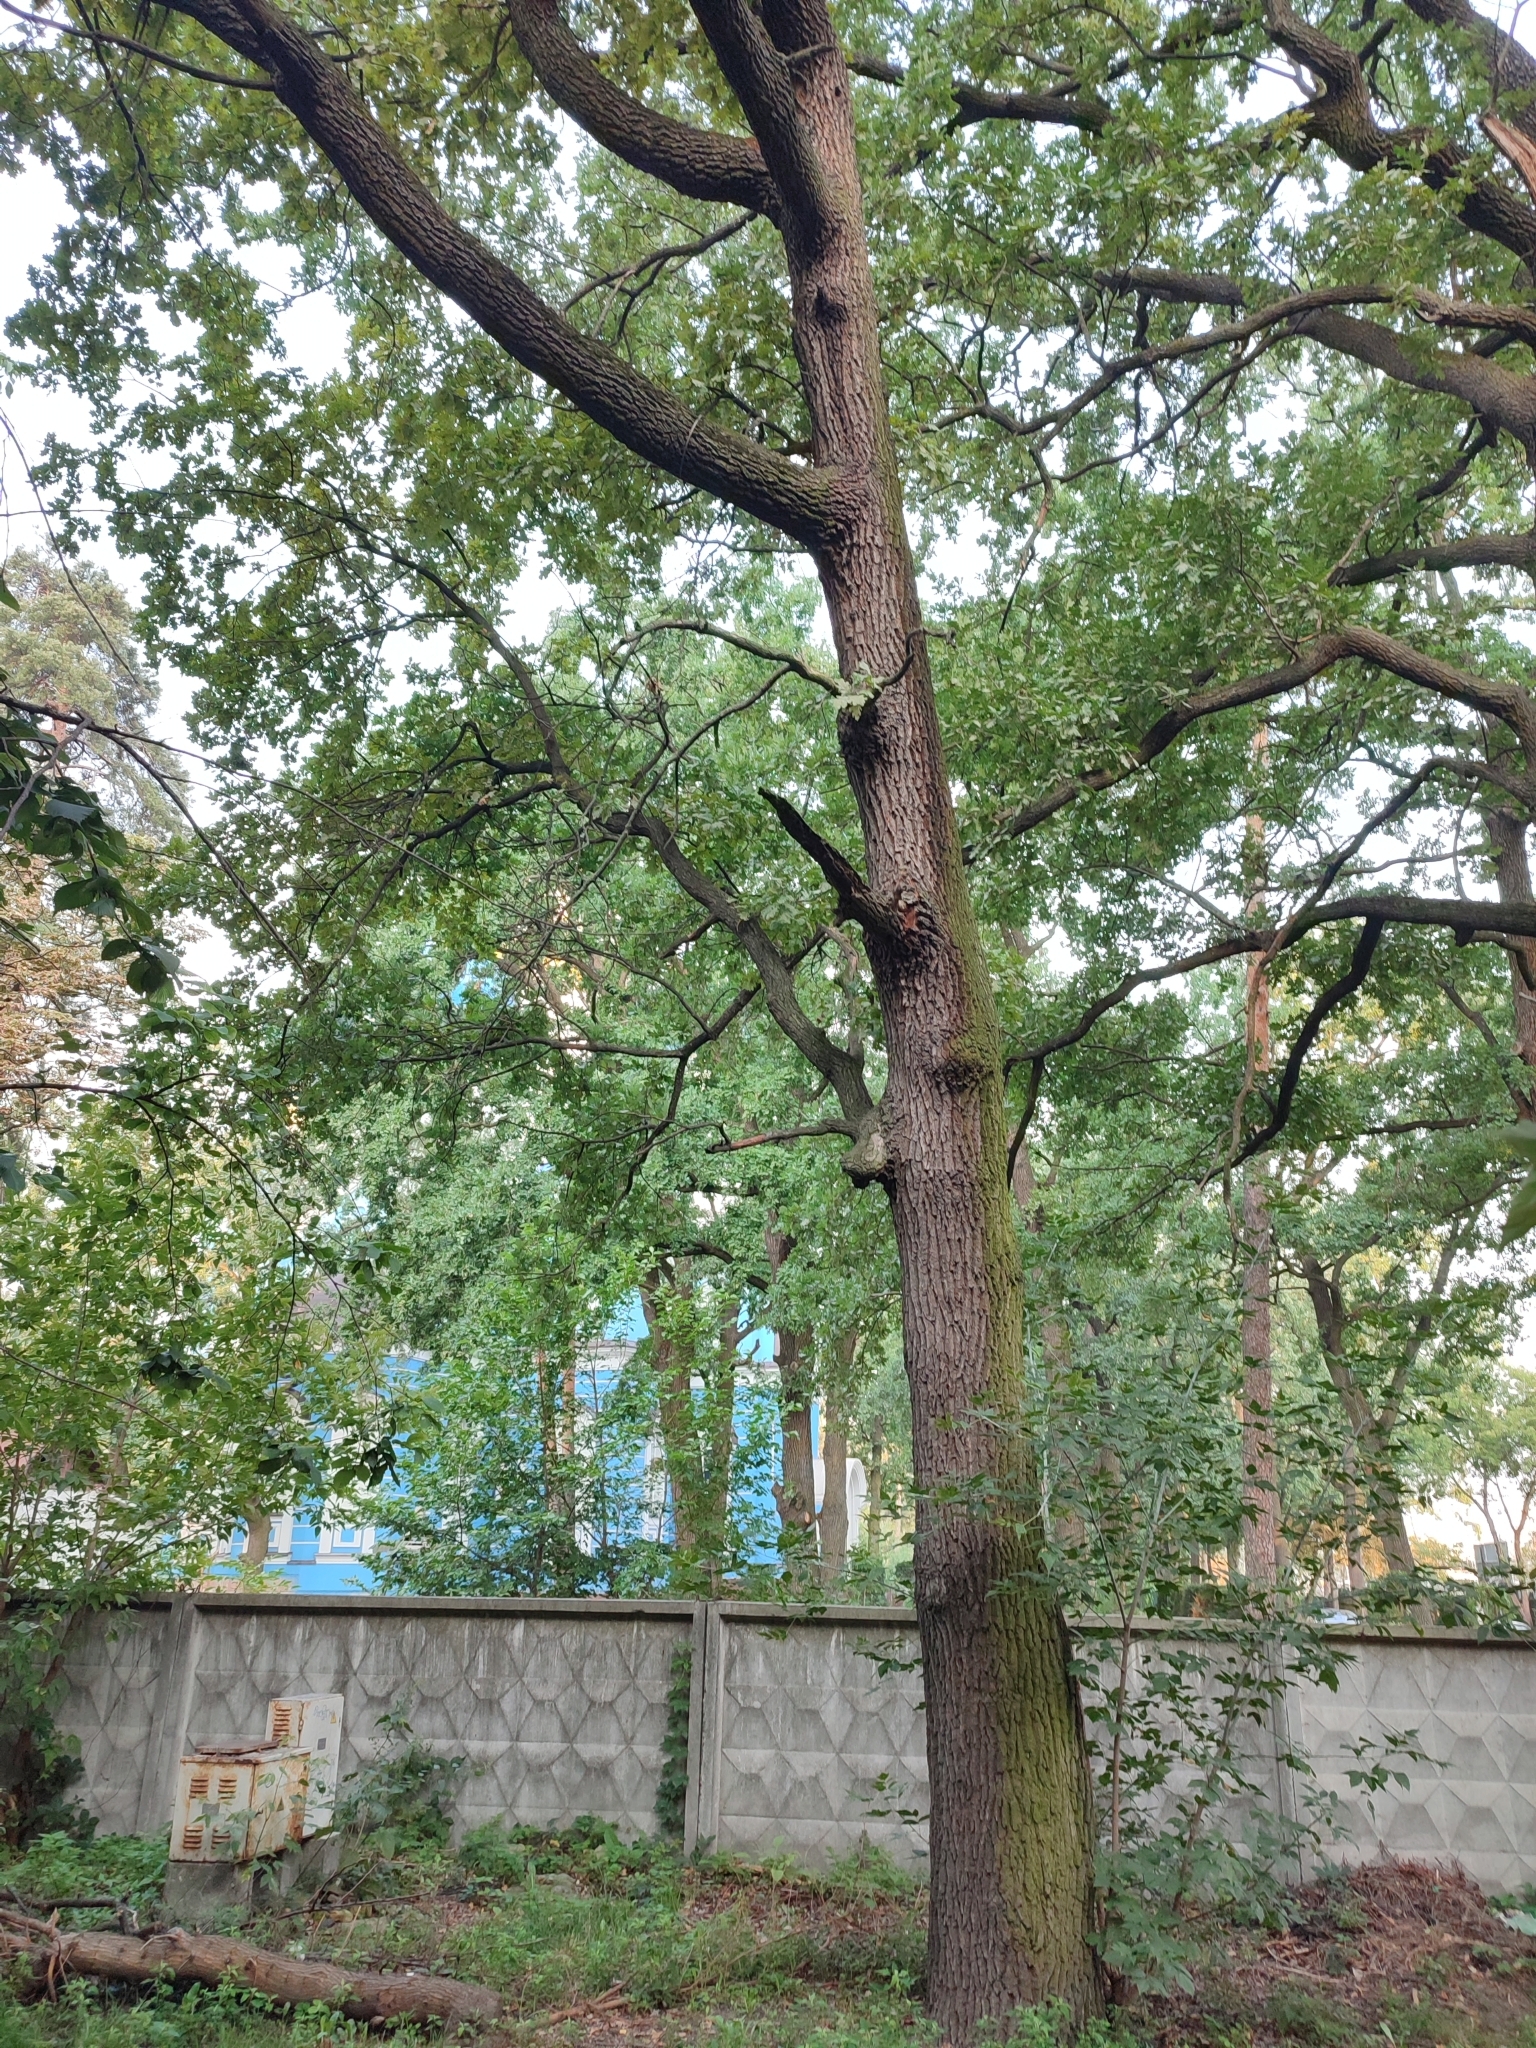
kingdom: Plantae
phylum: Tracheophyta
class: Magnoliopsida
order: Fagales
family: Fagaceae
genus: Quercus
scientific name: Quercus robur
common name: Pedunculate oak
